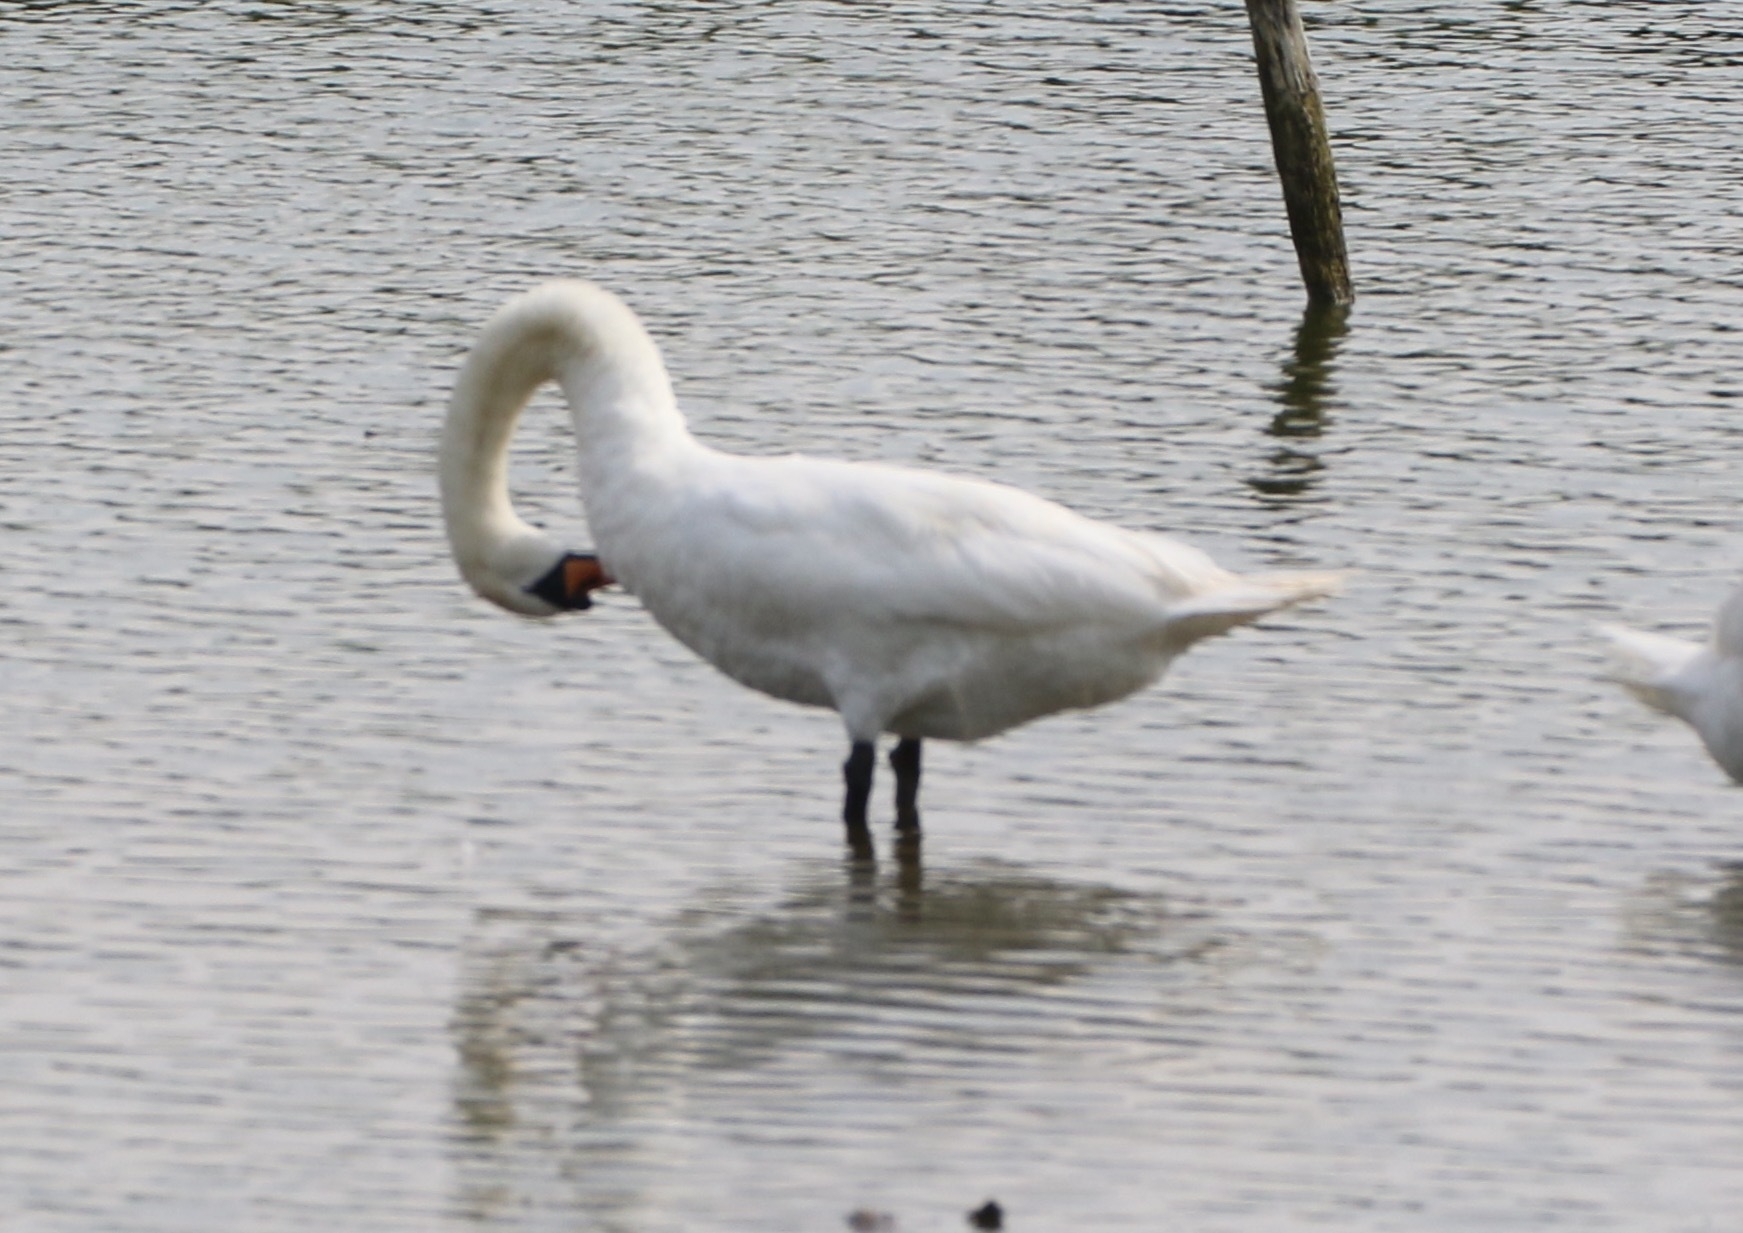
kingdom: Animalia
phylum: Chordata
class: Aves
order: Anseriformes
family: Anatidae
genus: Cygnus
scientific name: Cygnus olor
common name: Mute swan
